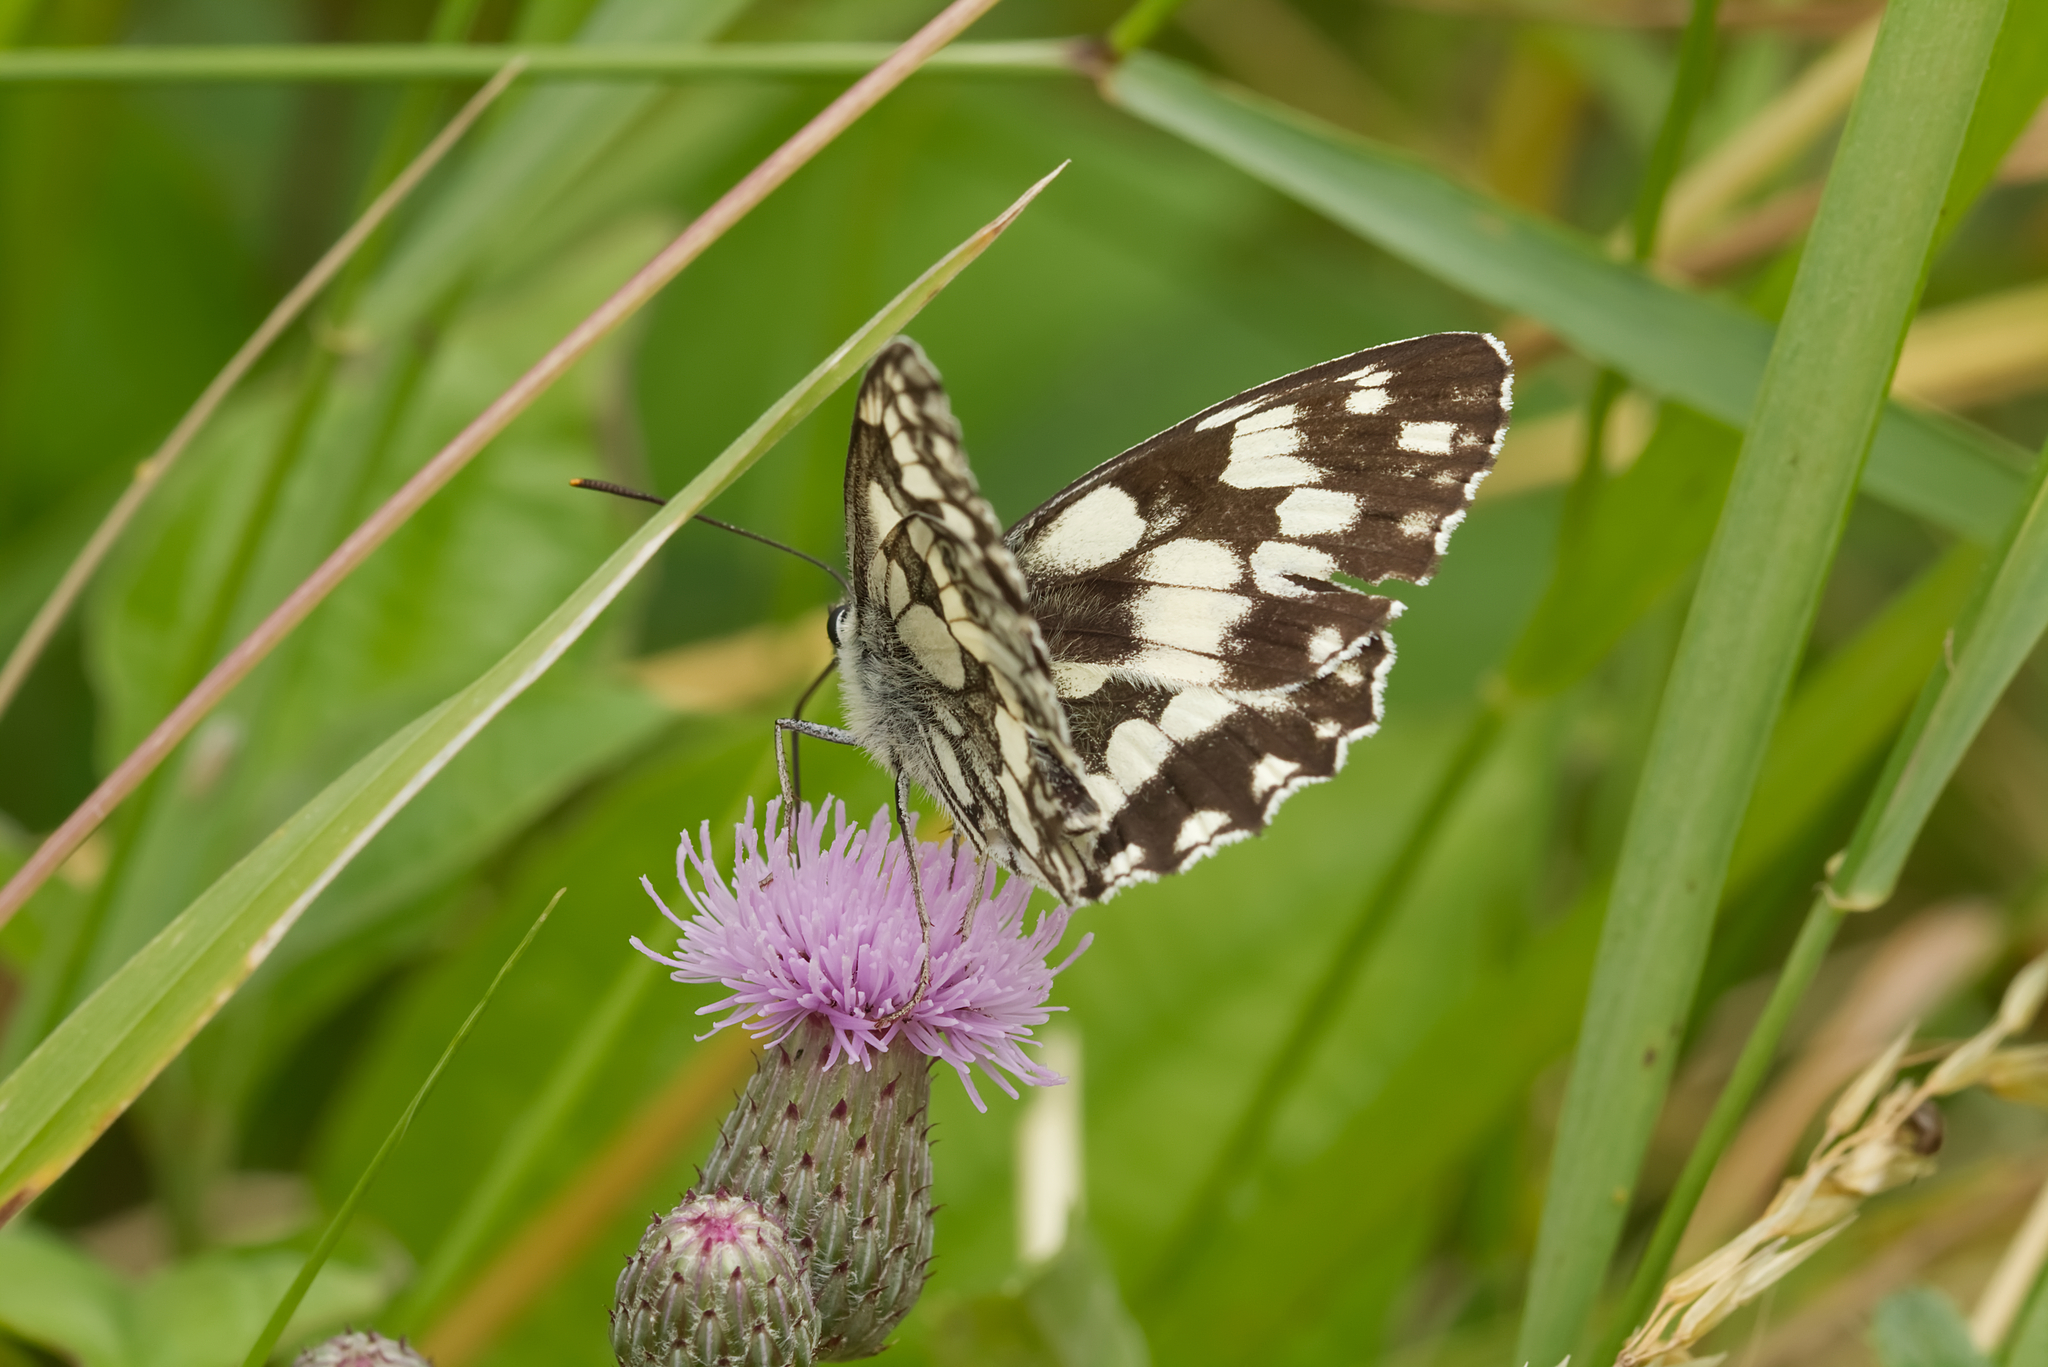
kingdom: Animalia
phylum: Arthropoda
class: Insecta
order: Lepidoptera
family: Nymphalidae
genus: Melanargia
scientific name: Melanargia galathea
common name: Marbled white
